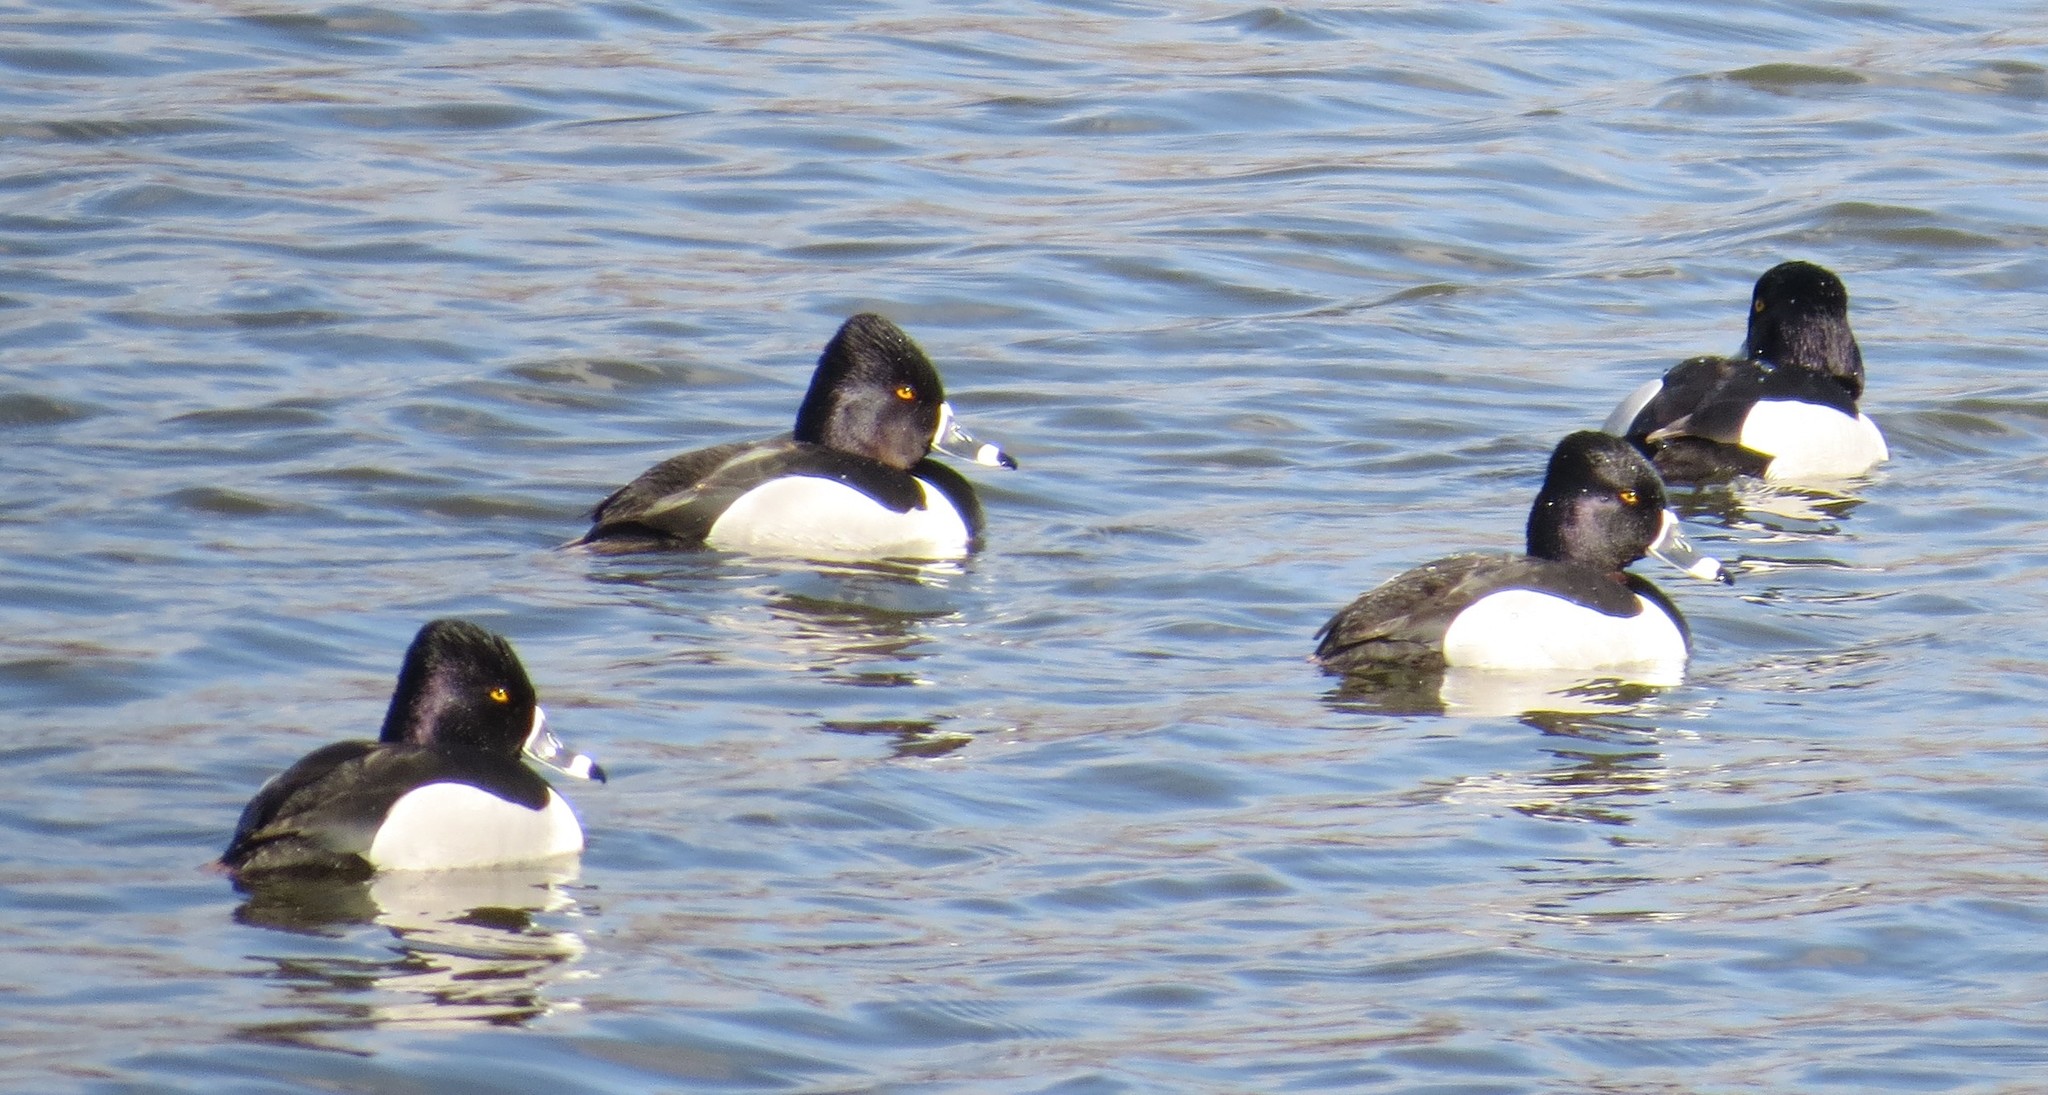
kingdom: Animalia
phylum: Chordata
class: Aves
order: Anseriformes
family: Anatidae
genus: Aythya
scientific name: Aythya collaris
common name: Ring-necked duck
